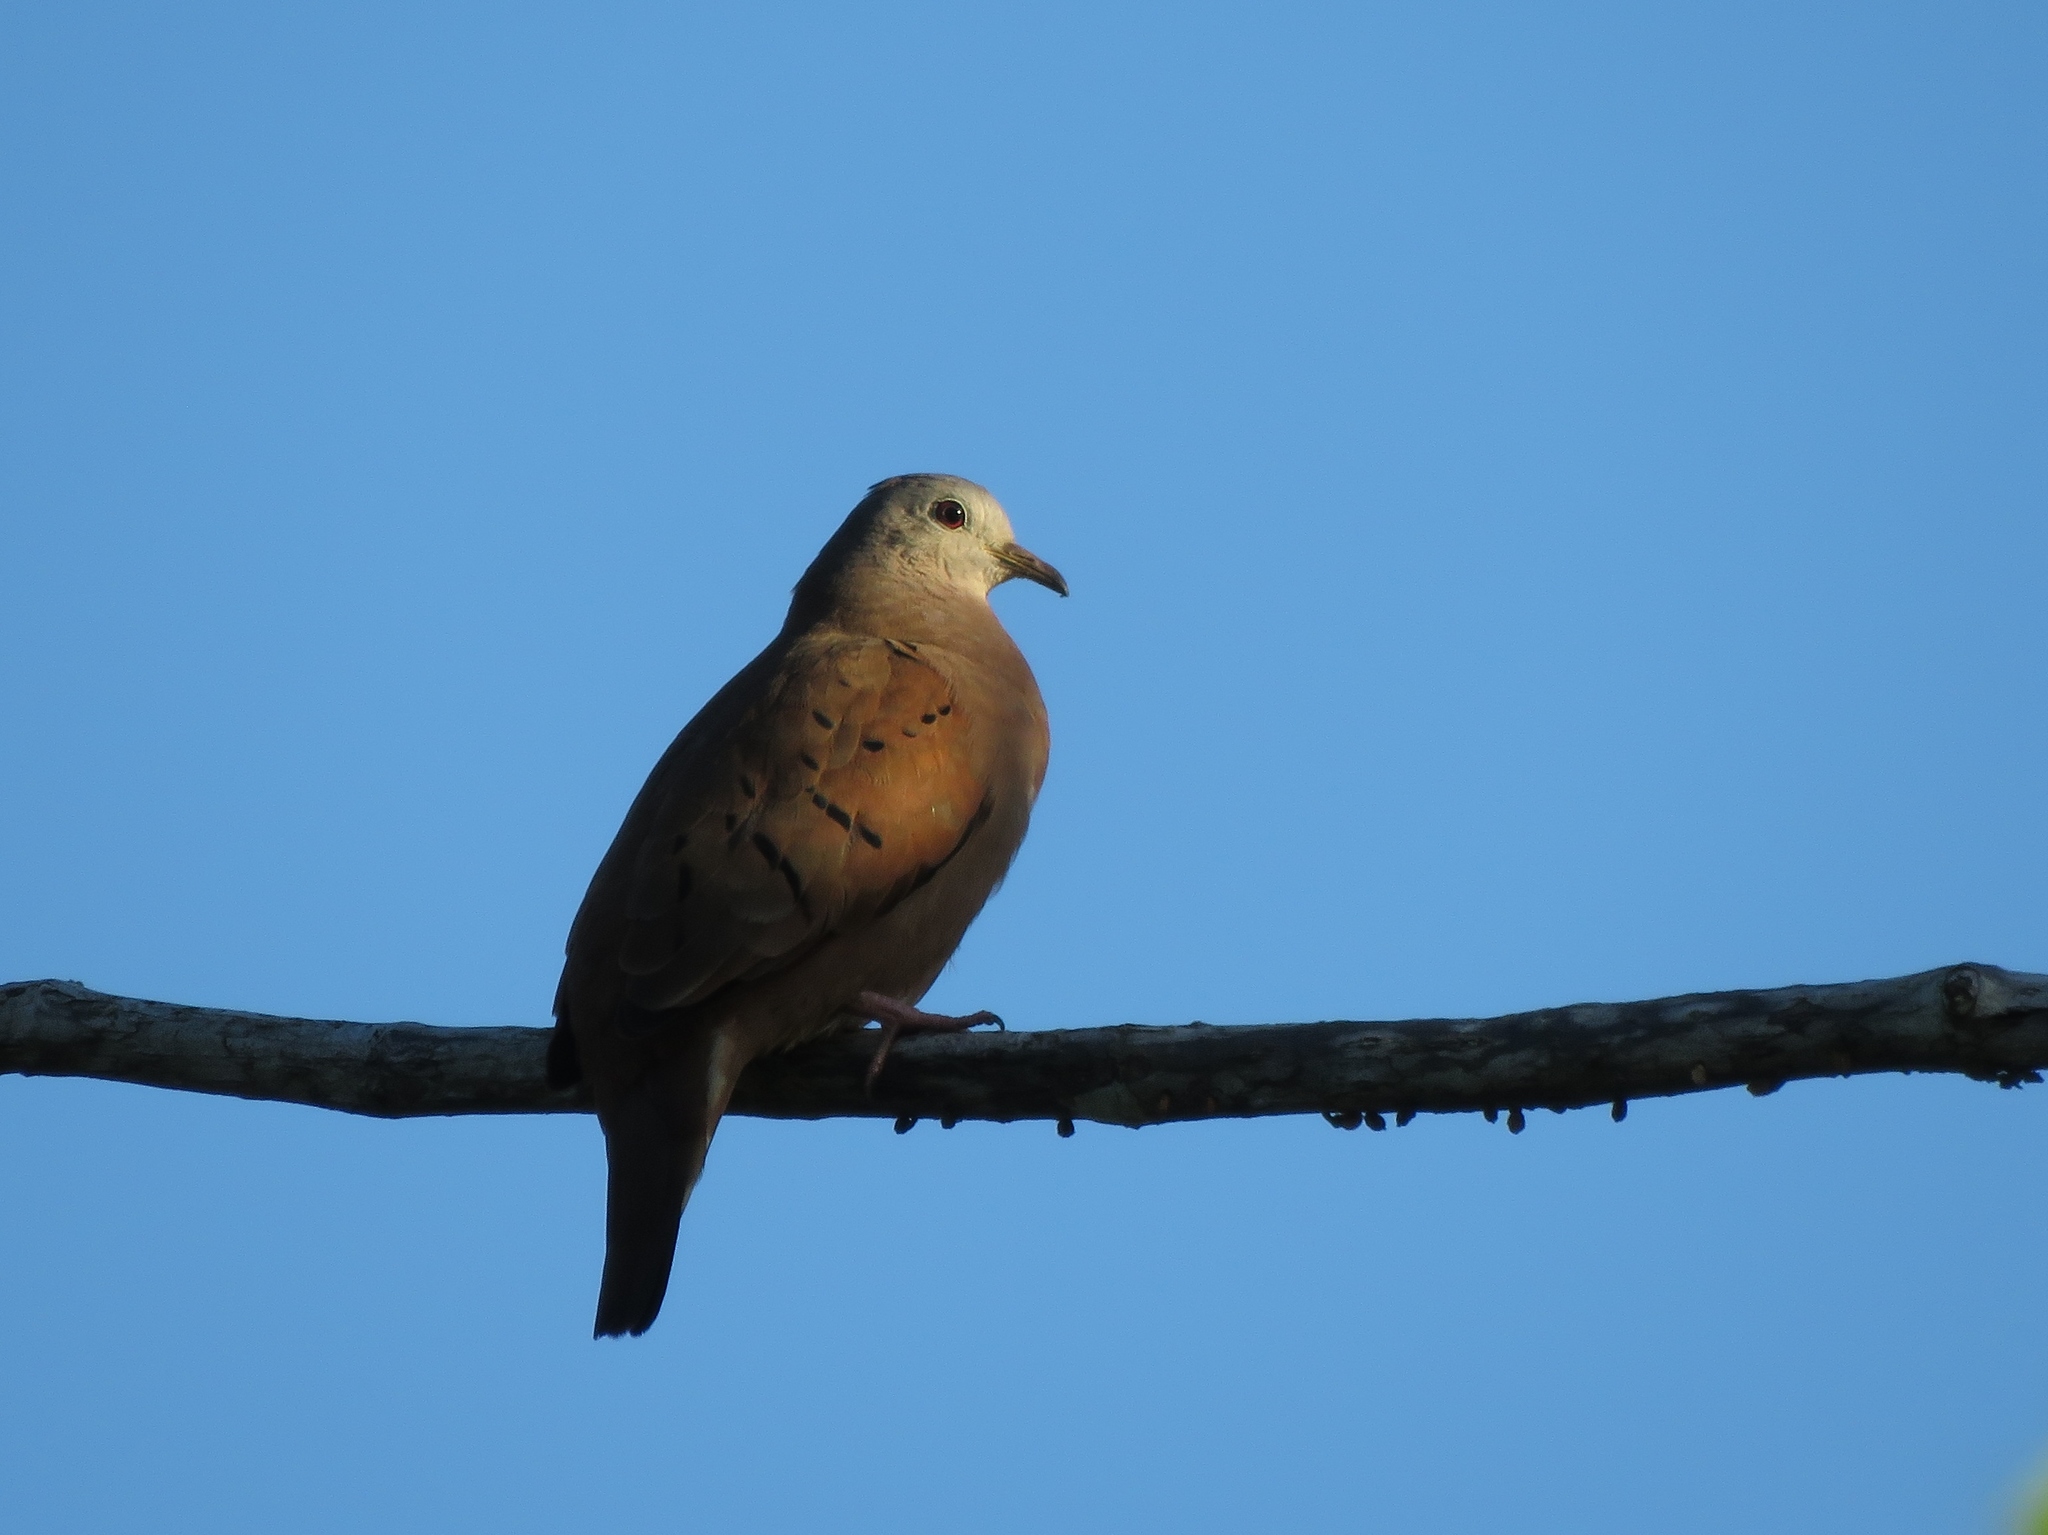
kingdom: Animalia
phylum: Chordata
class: Aves
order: Columbiformes
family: Columbidae
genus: Columbina
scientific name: Columbina talpacoti
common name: Ruddy ground dove
